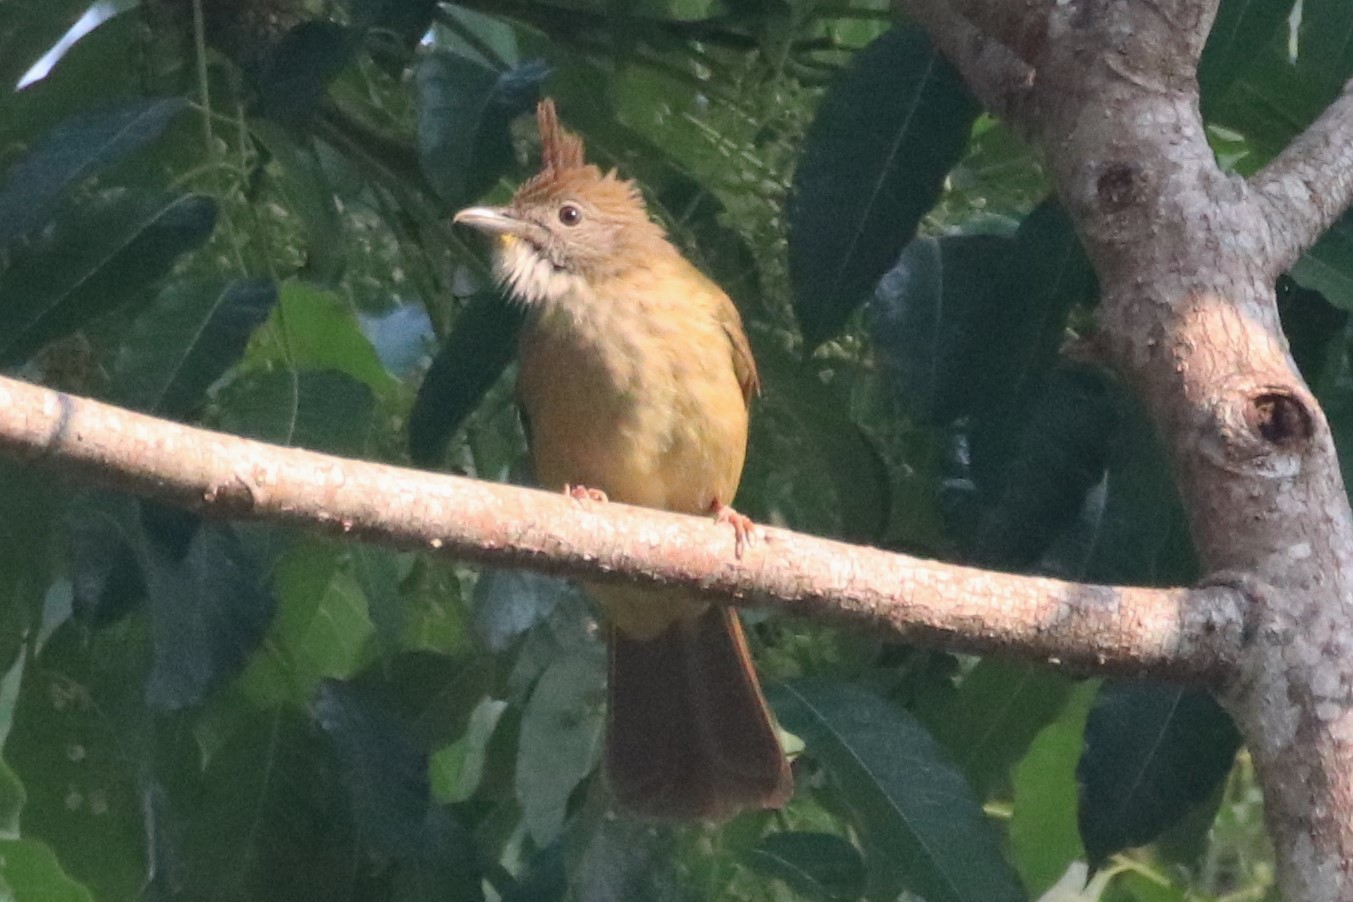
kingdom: Animalia
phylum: Chordata
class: Aves
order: Passeriformes
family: Pycnonotidae
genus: Alophoixus
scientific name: Alophoixus pallidus
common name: Puff-throated bulbul
